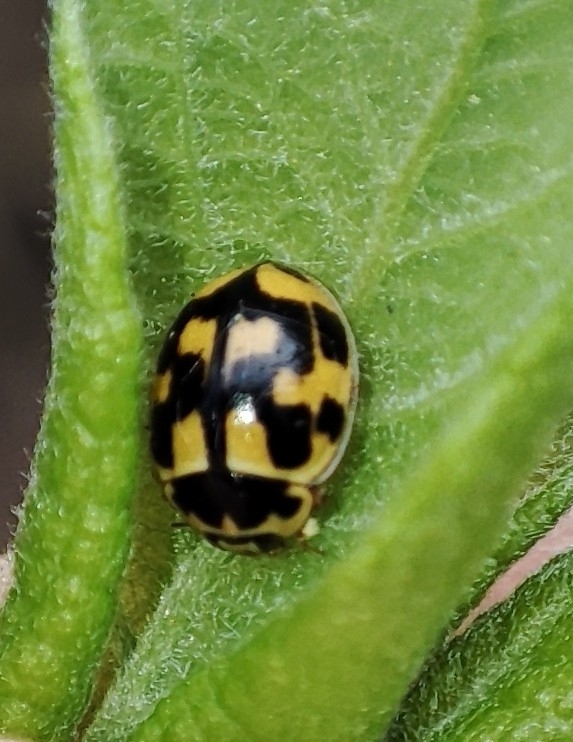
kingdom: Animalia
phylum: Arthropoda
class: Insecta
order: Coleoptera
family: Coccinellidae
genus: Propylaea
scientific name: Propylaea quatuordecimpunctata
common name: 14-spotted ladybird beetle
